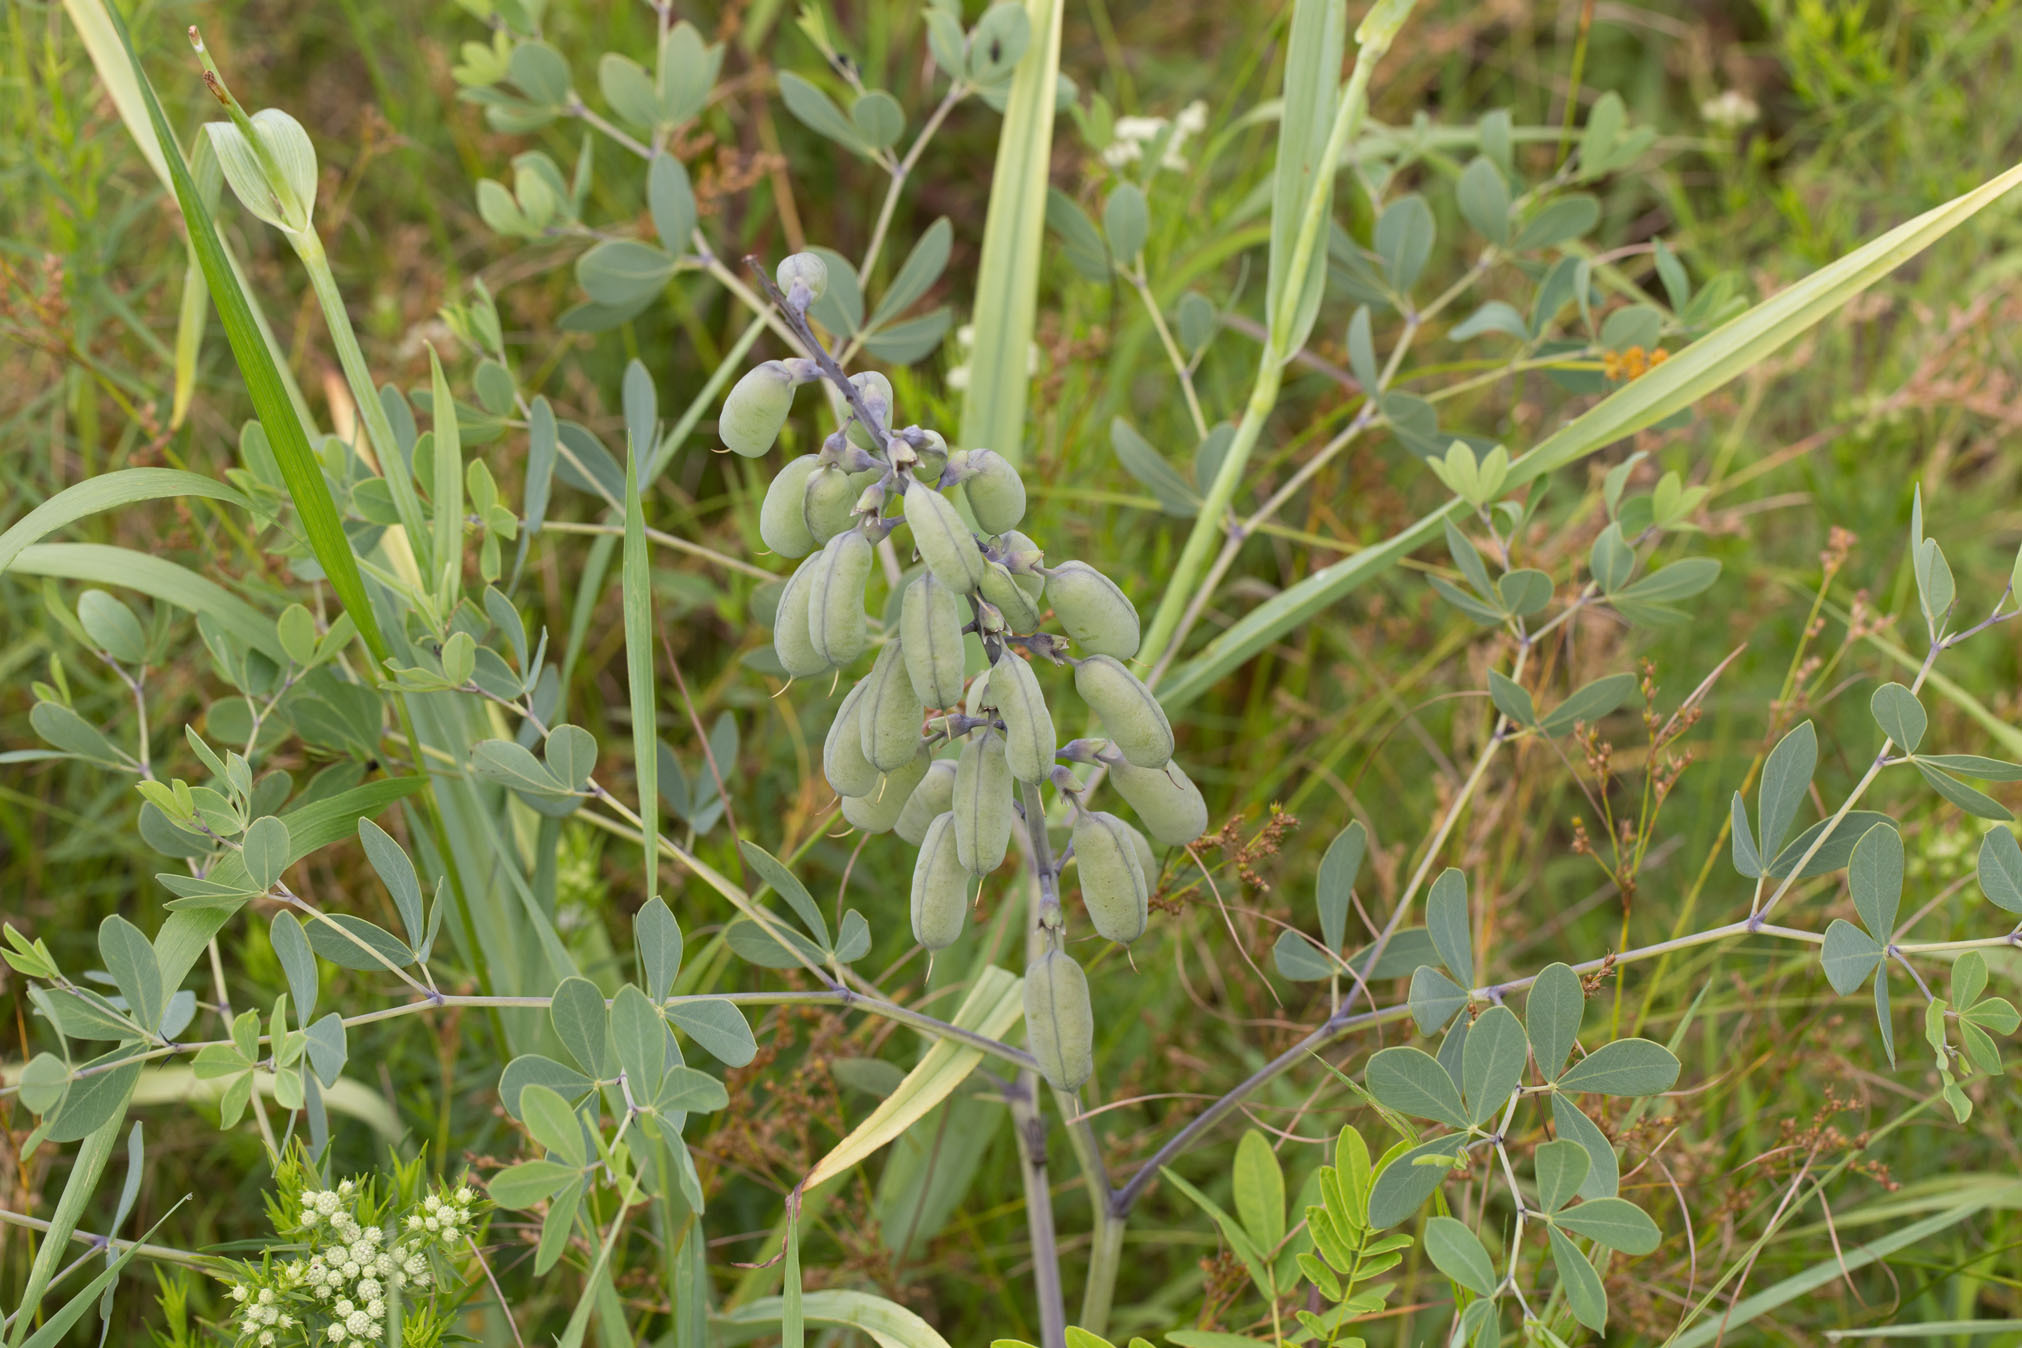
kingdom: Plantae
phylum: Tracheophyta
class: Magnoliopsida
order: Fabales
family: Fabaceae
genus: Baptisia
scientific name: Baptisia alba
